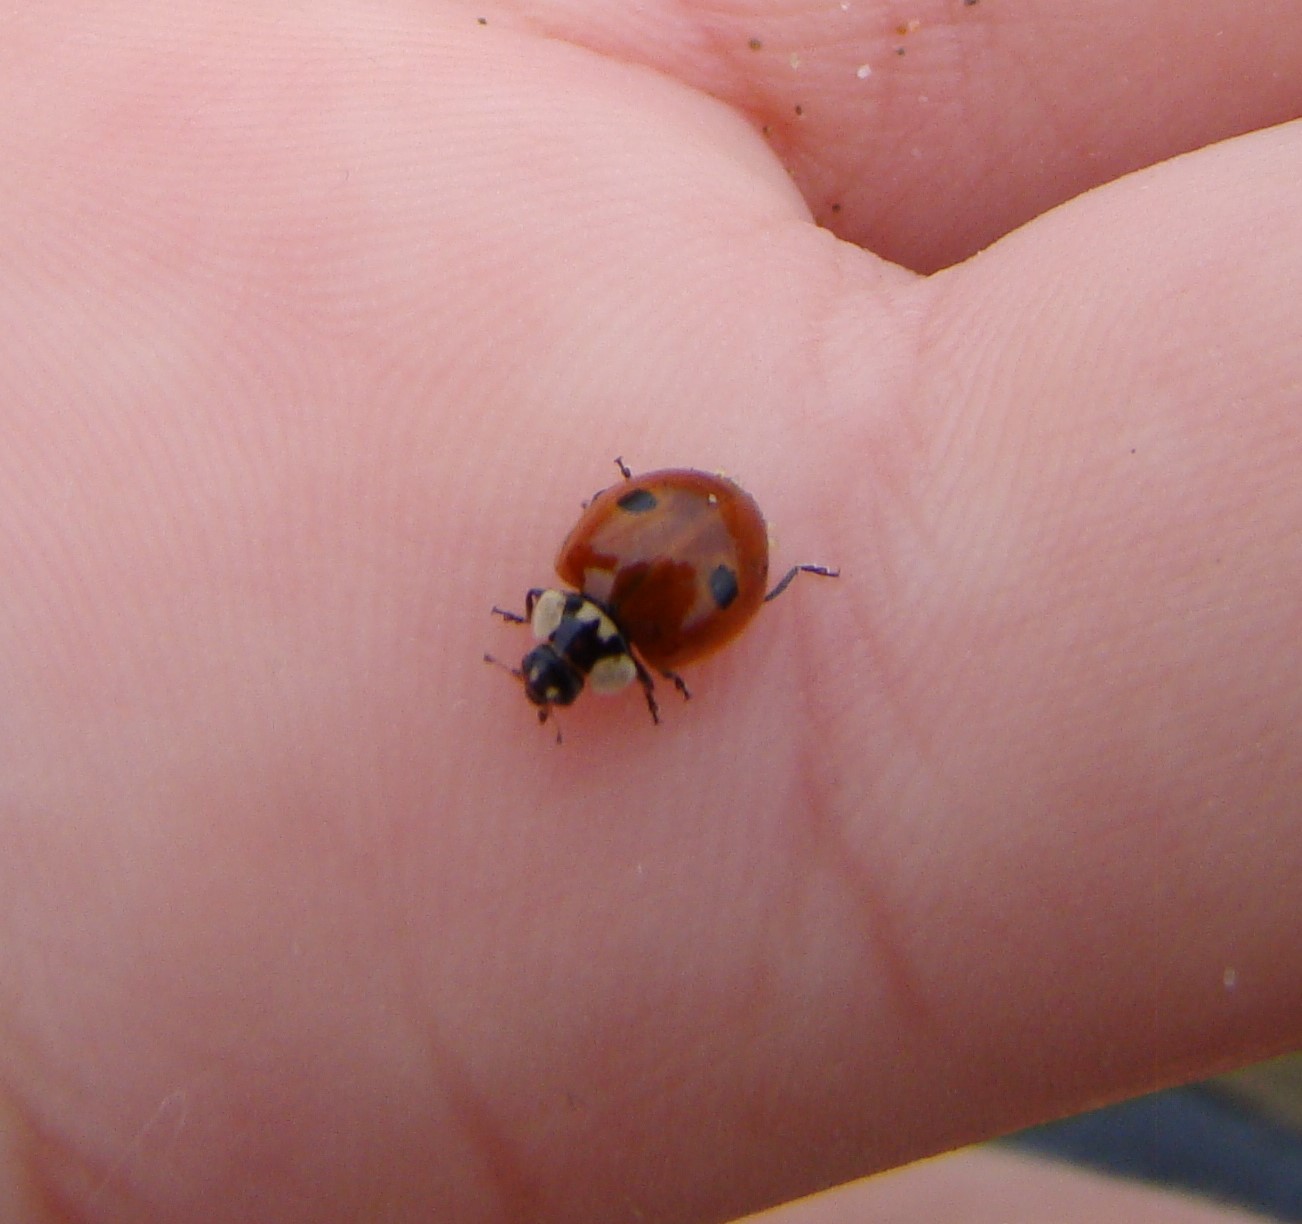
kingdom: Animalia
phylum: Arthropoda
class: Insecta
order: Coleoptera
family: Coccinellidae
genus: Adalia
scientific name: Adalia bipunctata
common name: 2-spot ladybird
